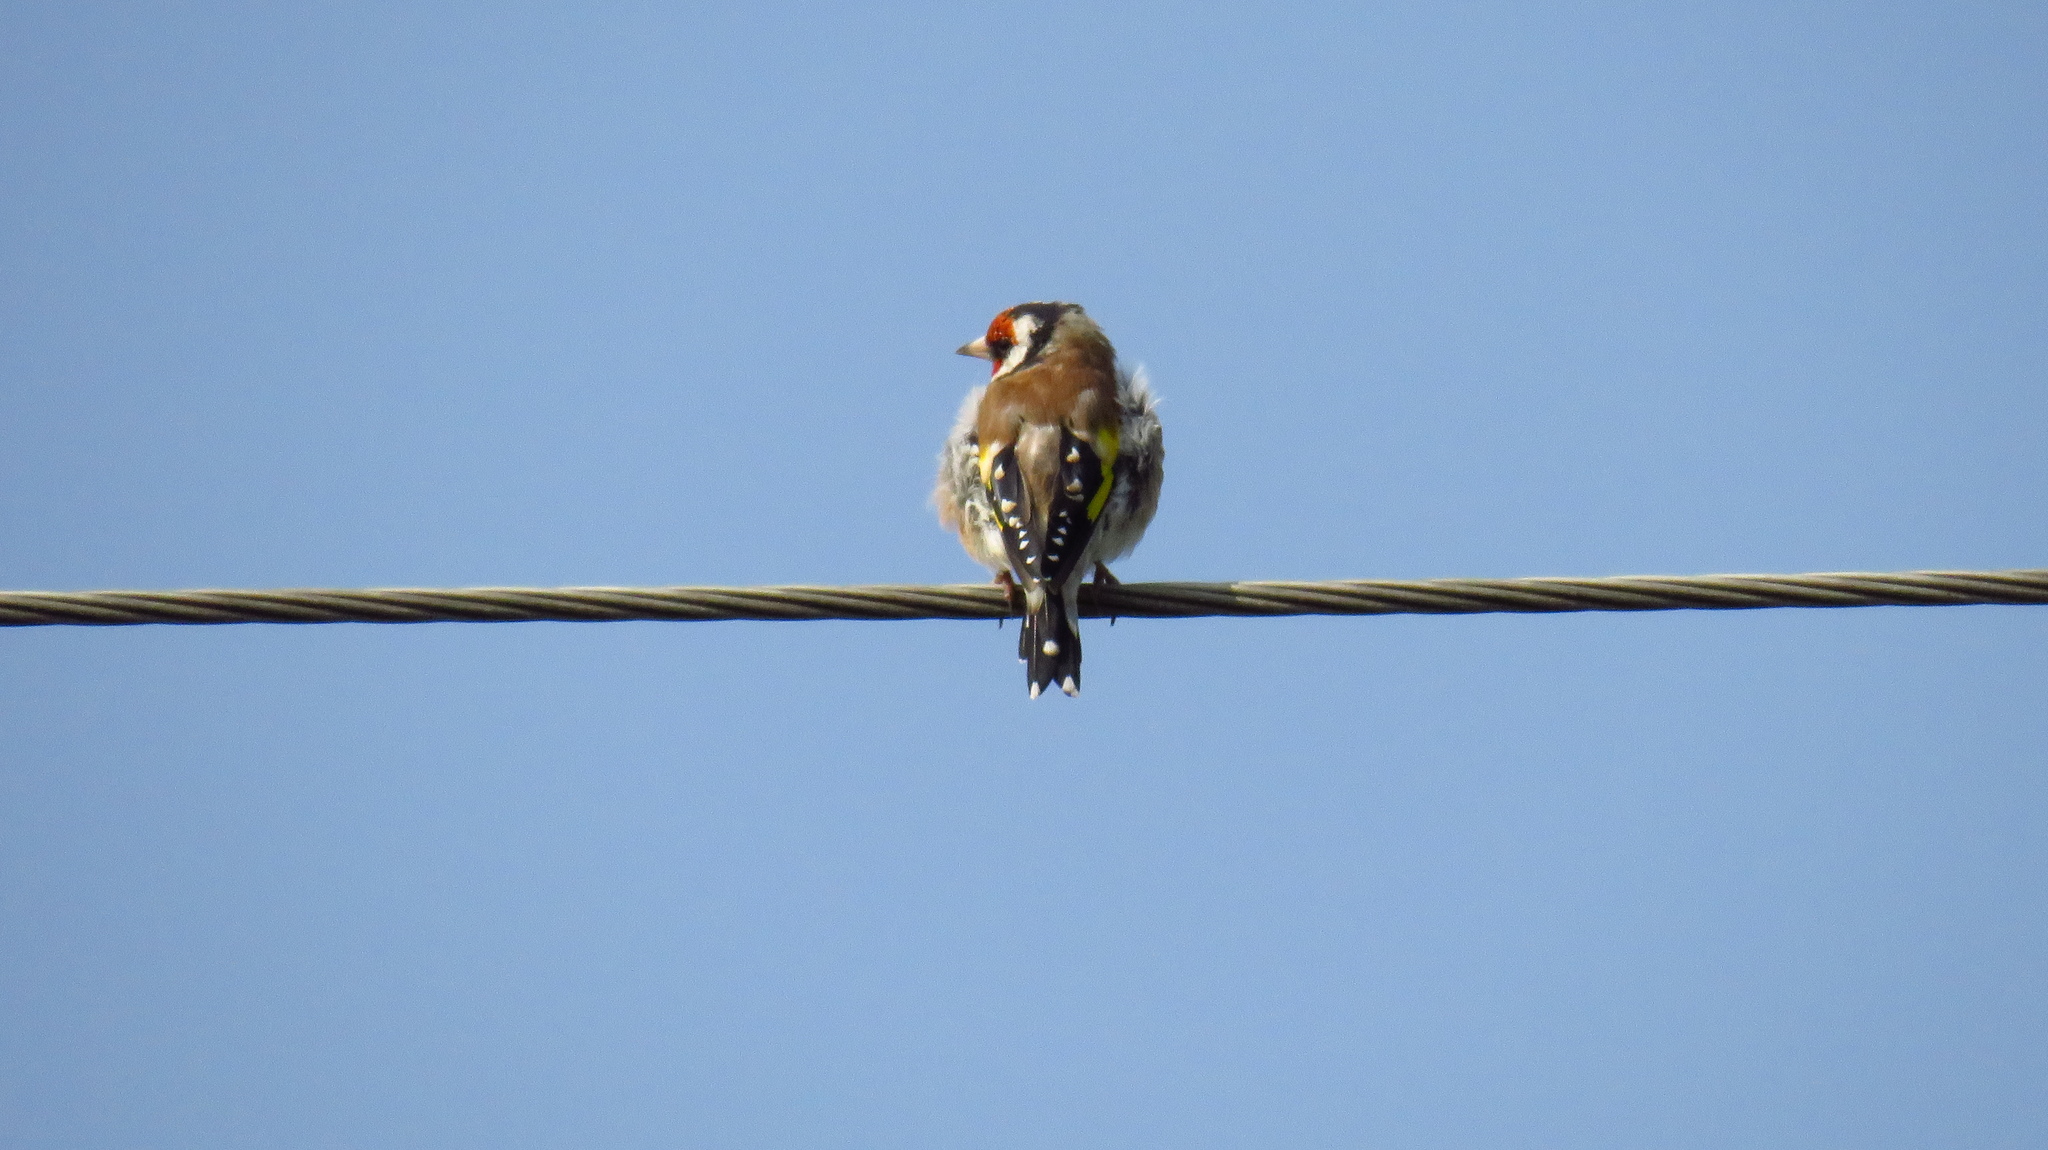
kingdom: Animalia
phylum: Chordata
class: Aves
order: Passeriformes
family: Fringillidae
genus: Carduelis
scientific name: Carduelis carduelis
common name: European goldfinch
